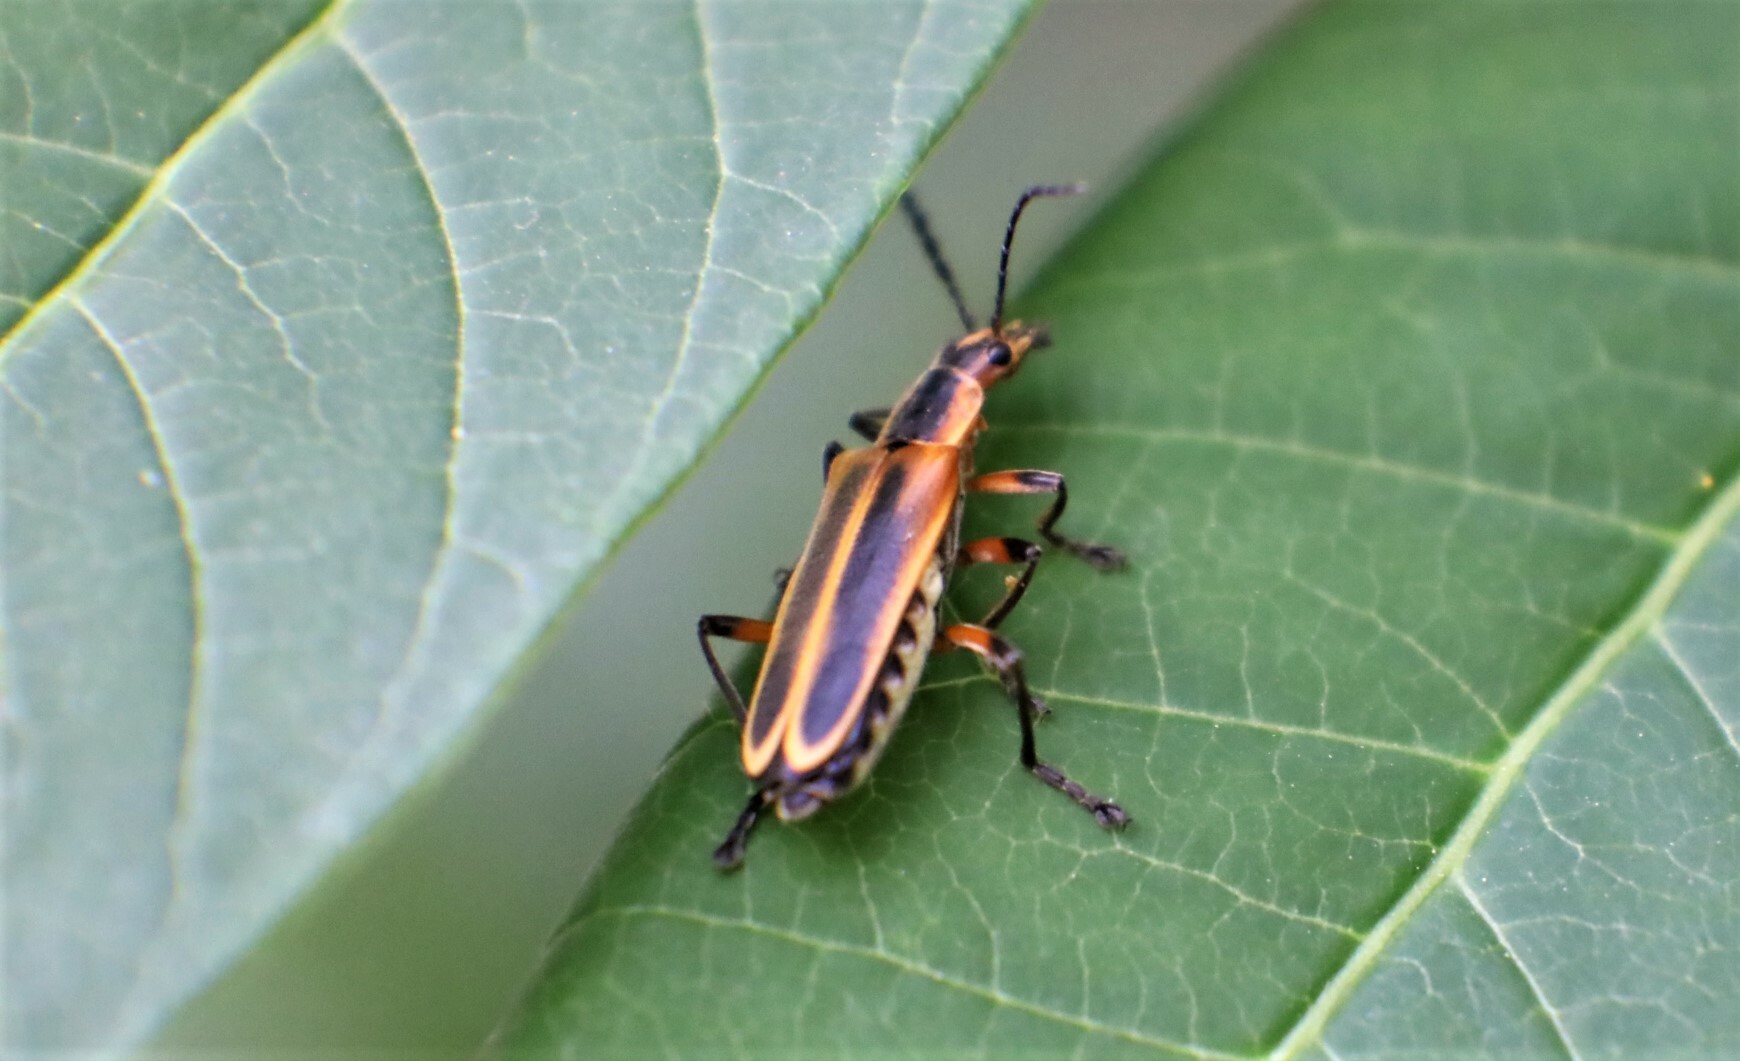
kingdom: Animalia
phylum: Arthropoda
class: Insecta
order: Coleoptera
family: Cantharidae
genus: Chauliognathus
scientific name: Chauliognathus marginatus
